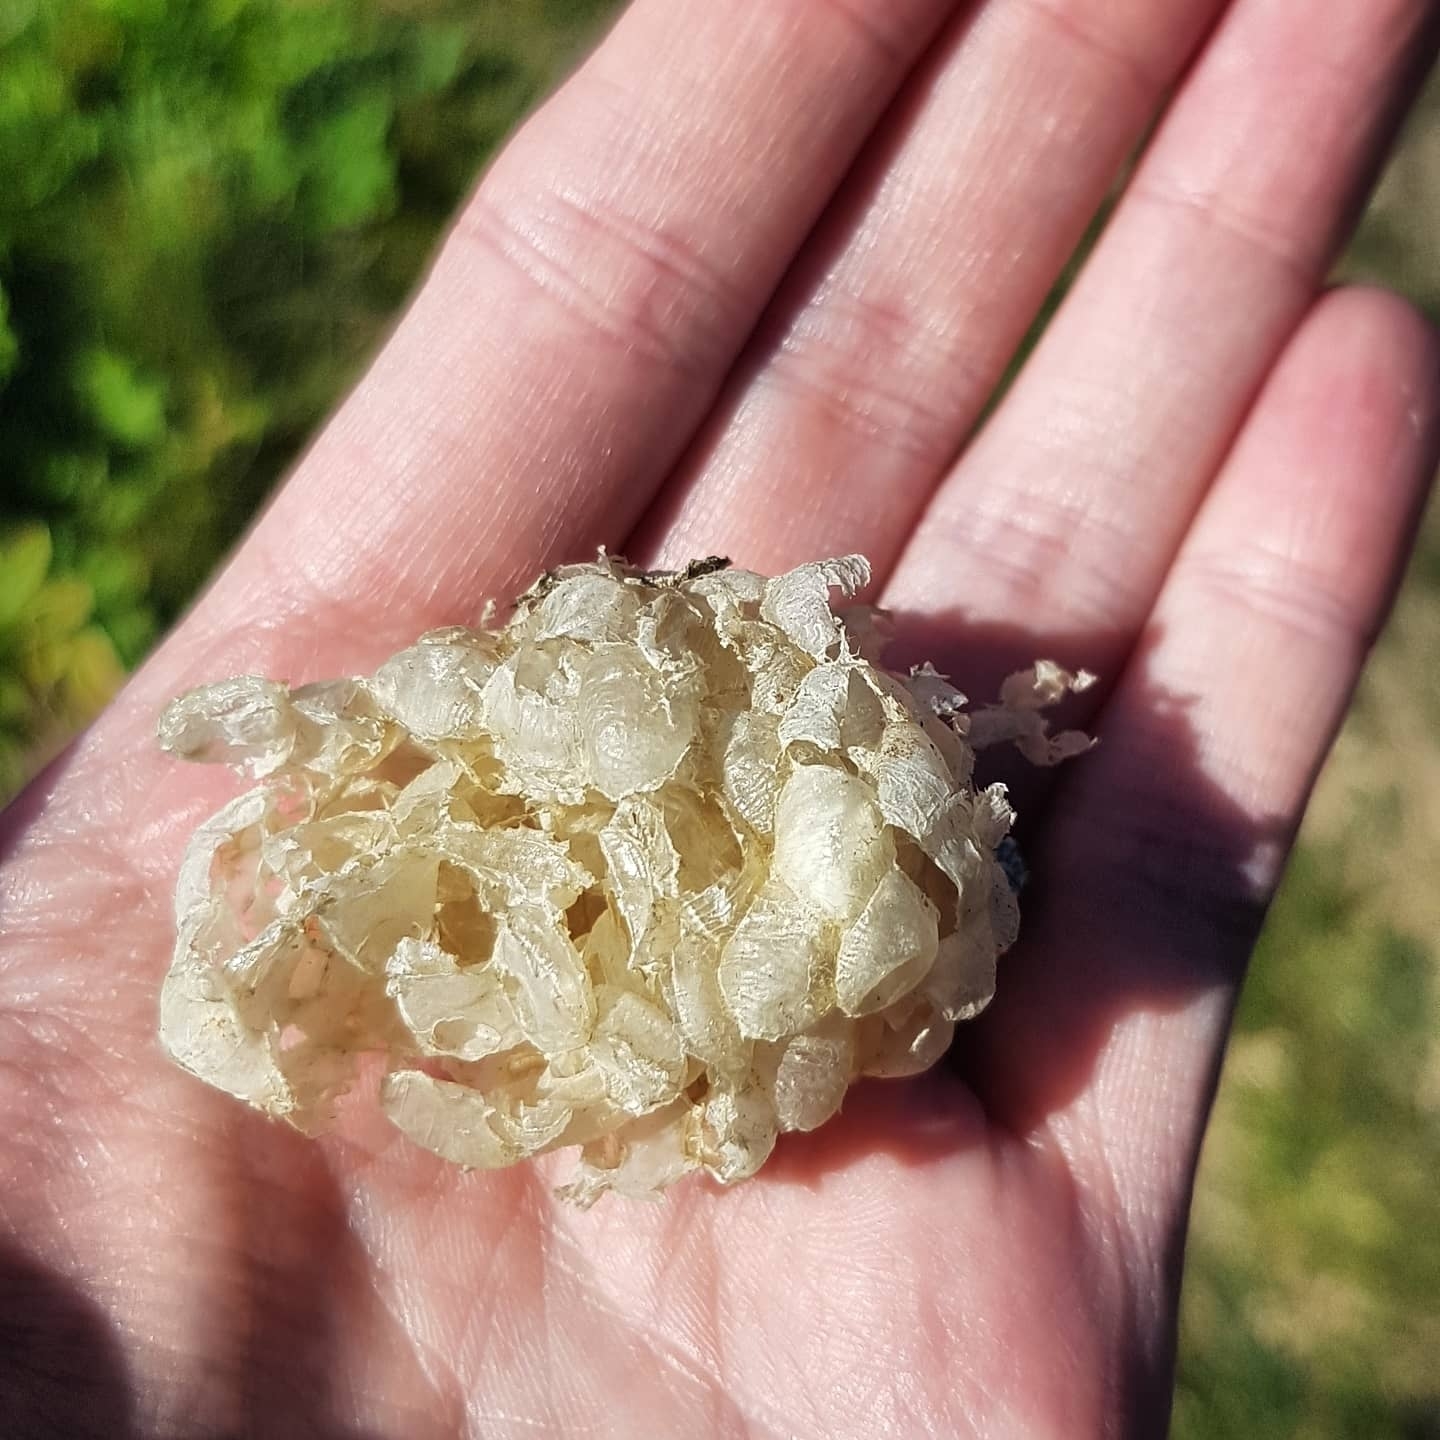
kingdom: Animalia
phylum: Mollusca
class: Gastropoda
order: Neogastropoda
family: Buccinidae
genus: Buccinum
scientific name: Buccinum undatum
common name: Common whelk
